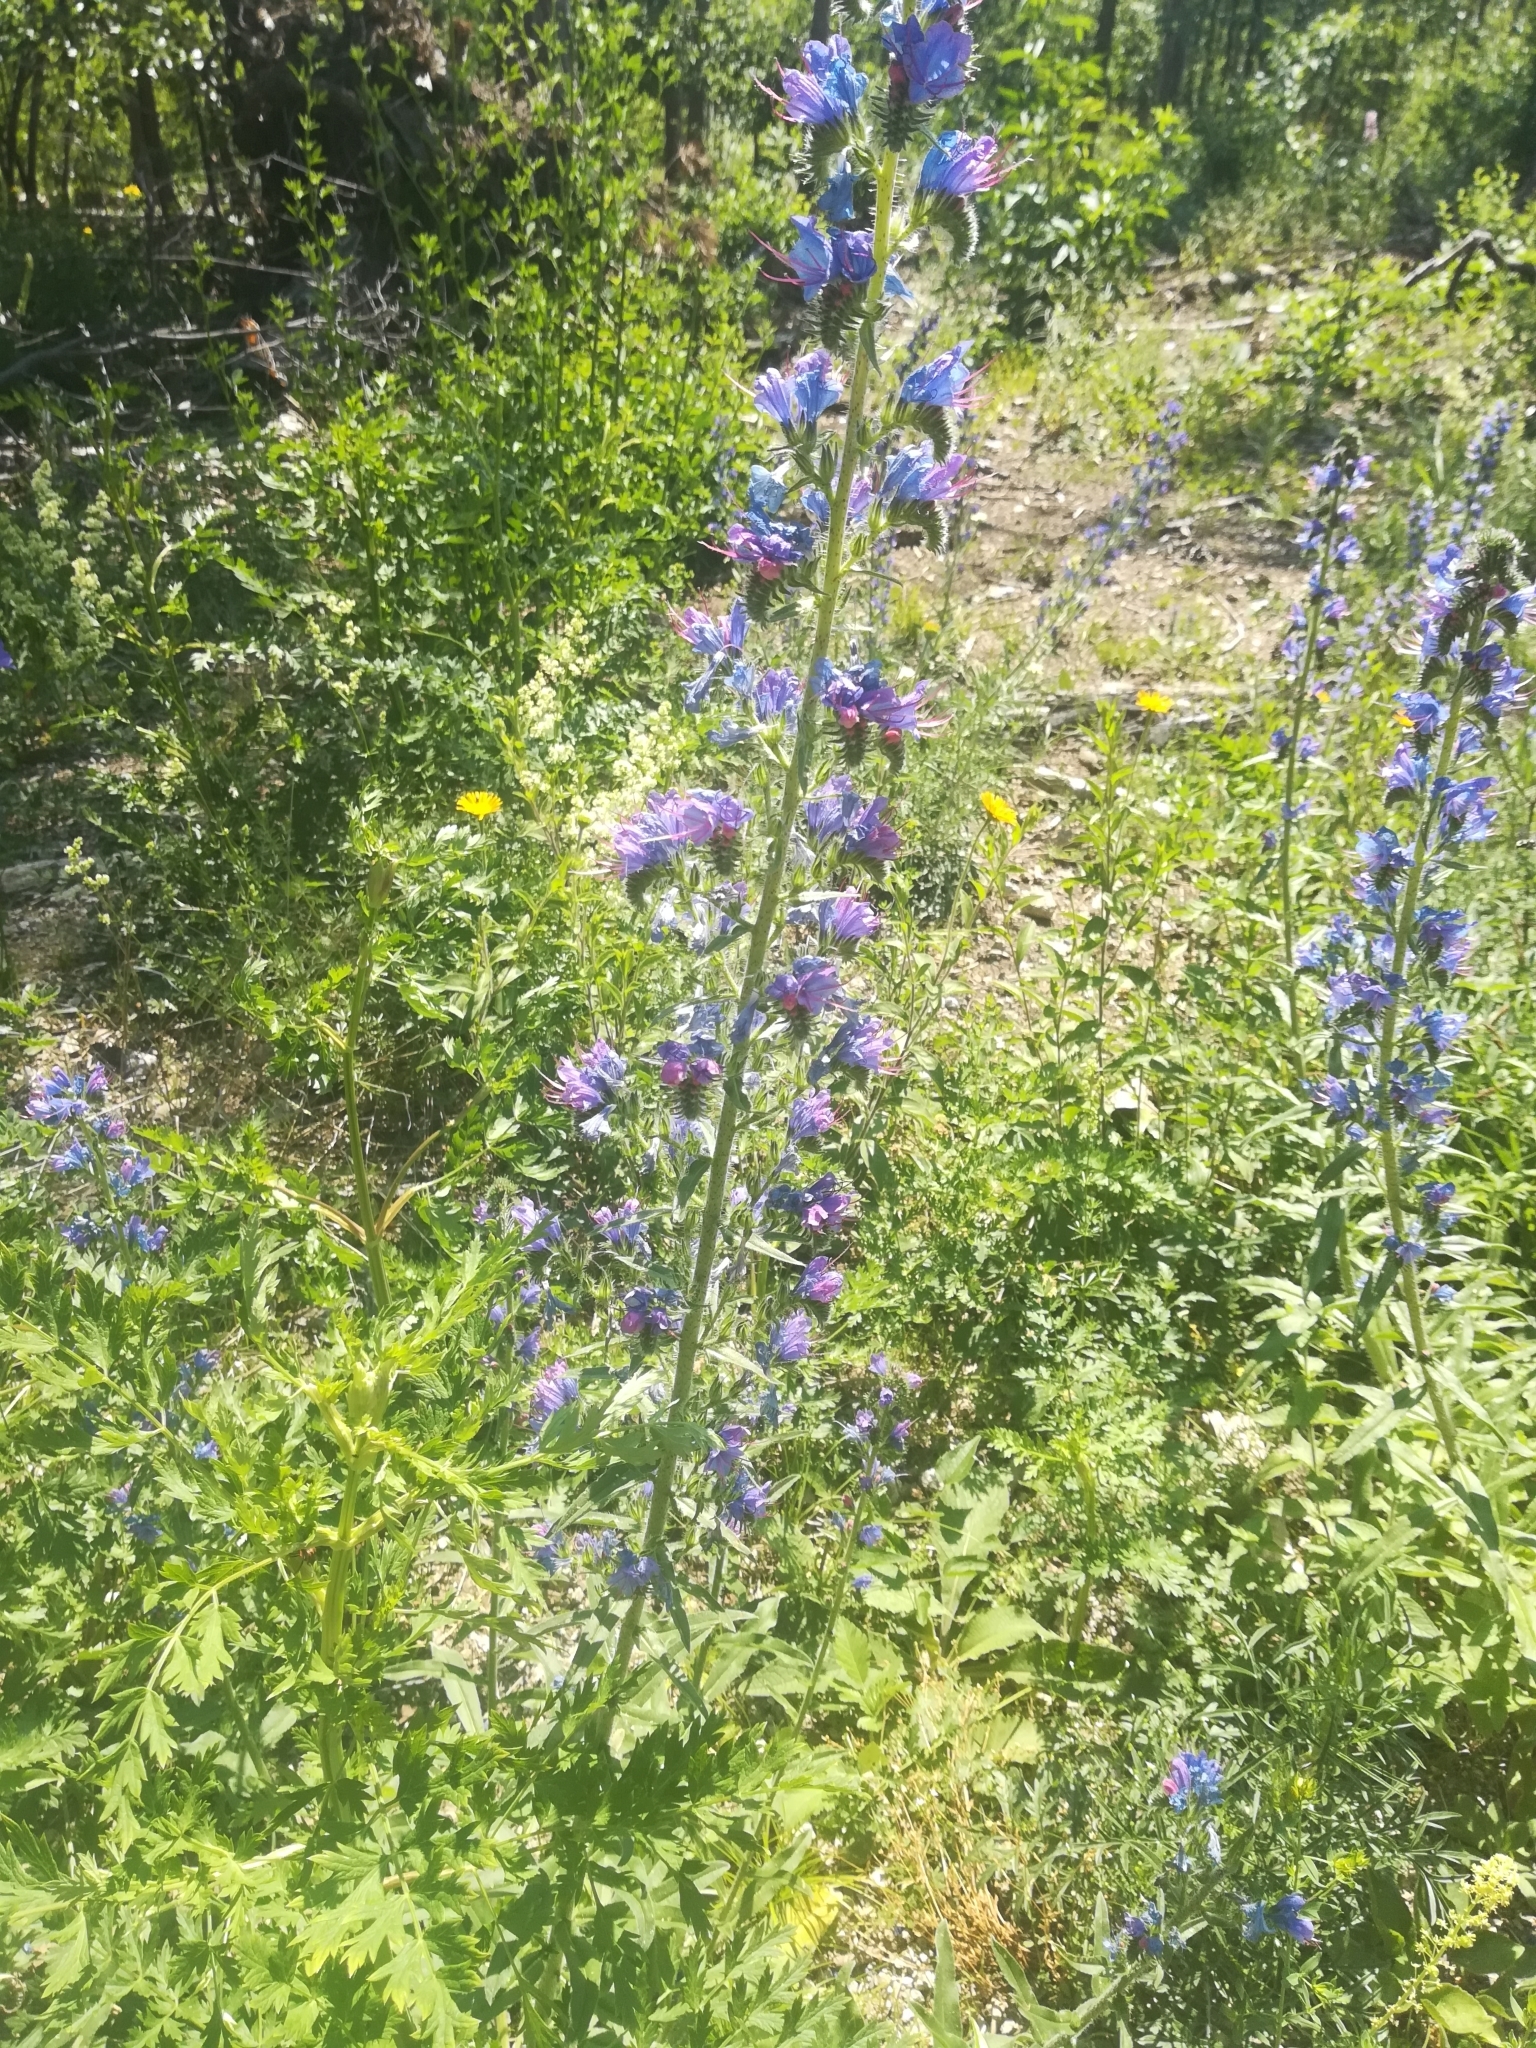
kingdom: Plantae
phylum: Tracheophyta
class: Magnoliopsida
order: Boraginales
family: Boraginaceae
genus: Echium
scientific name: Echium vulgare
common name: Common viper's bugloss
